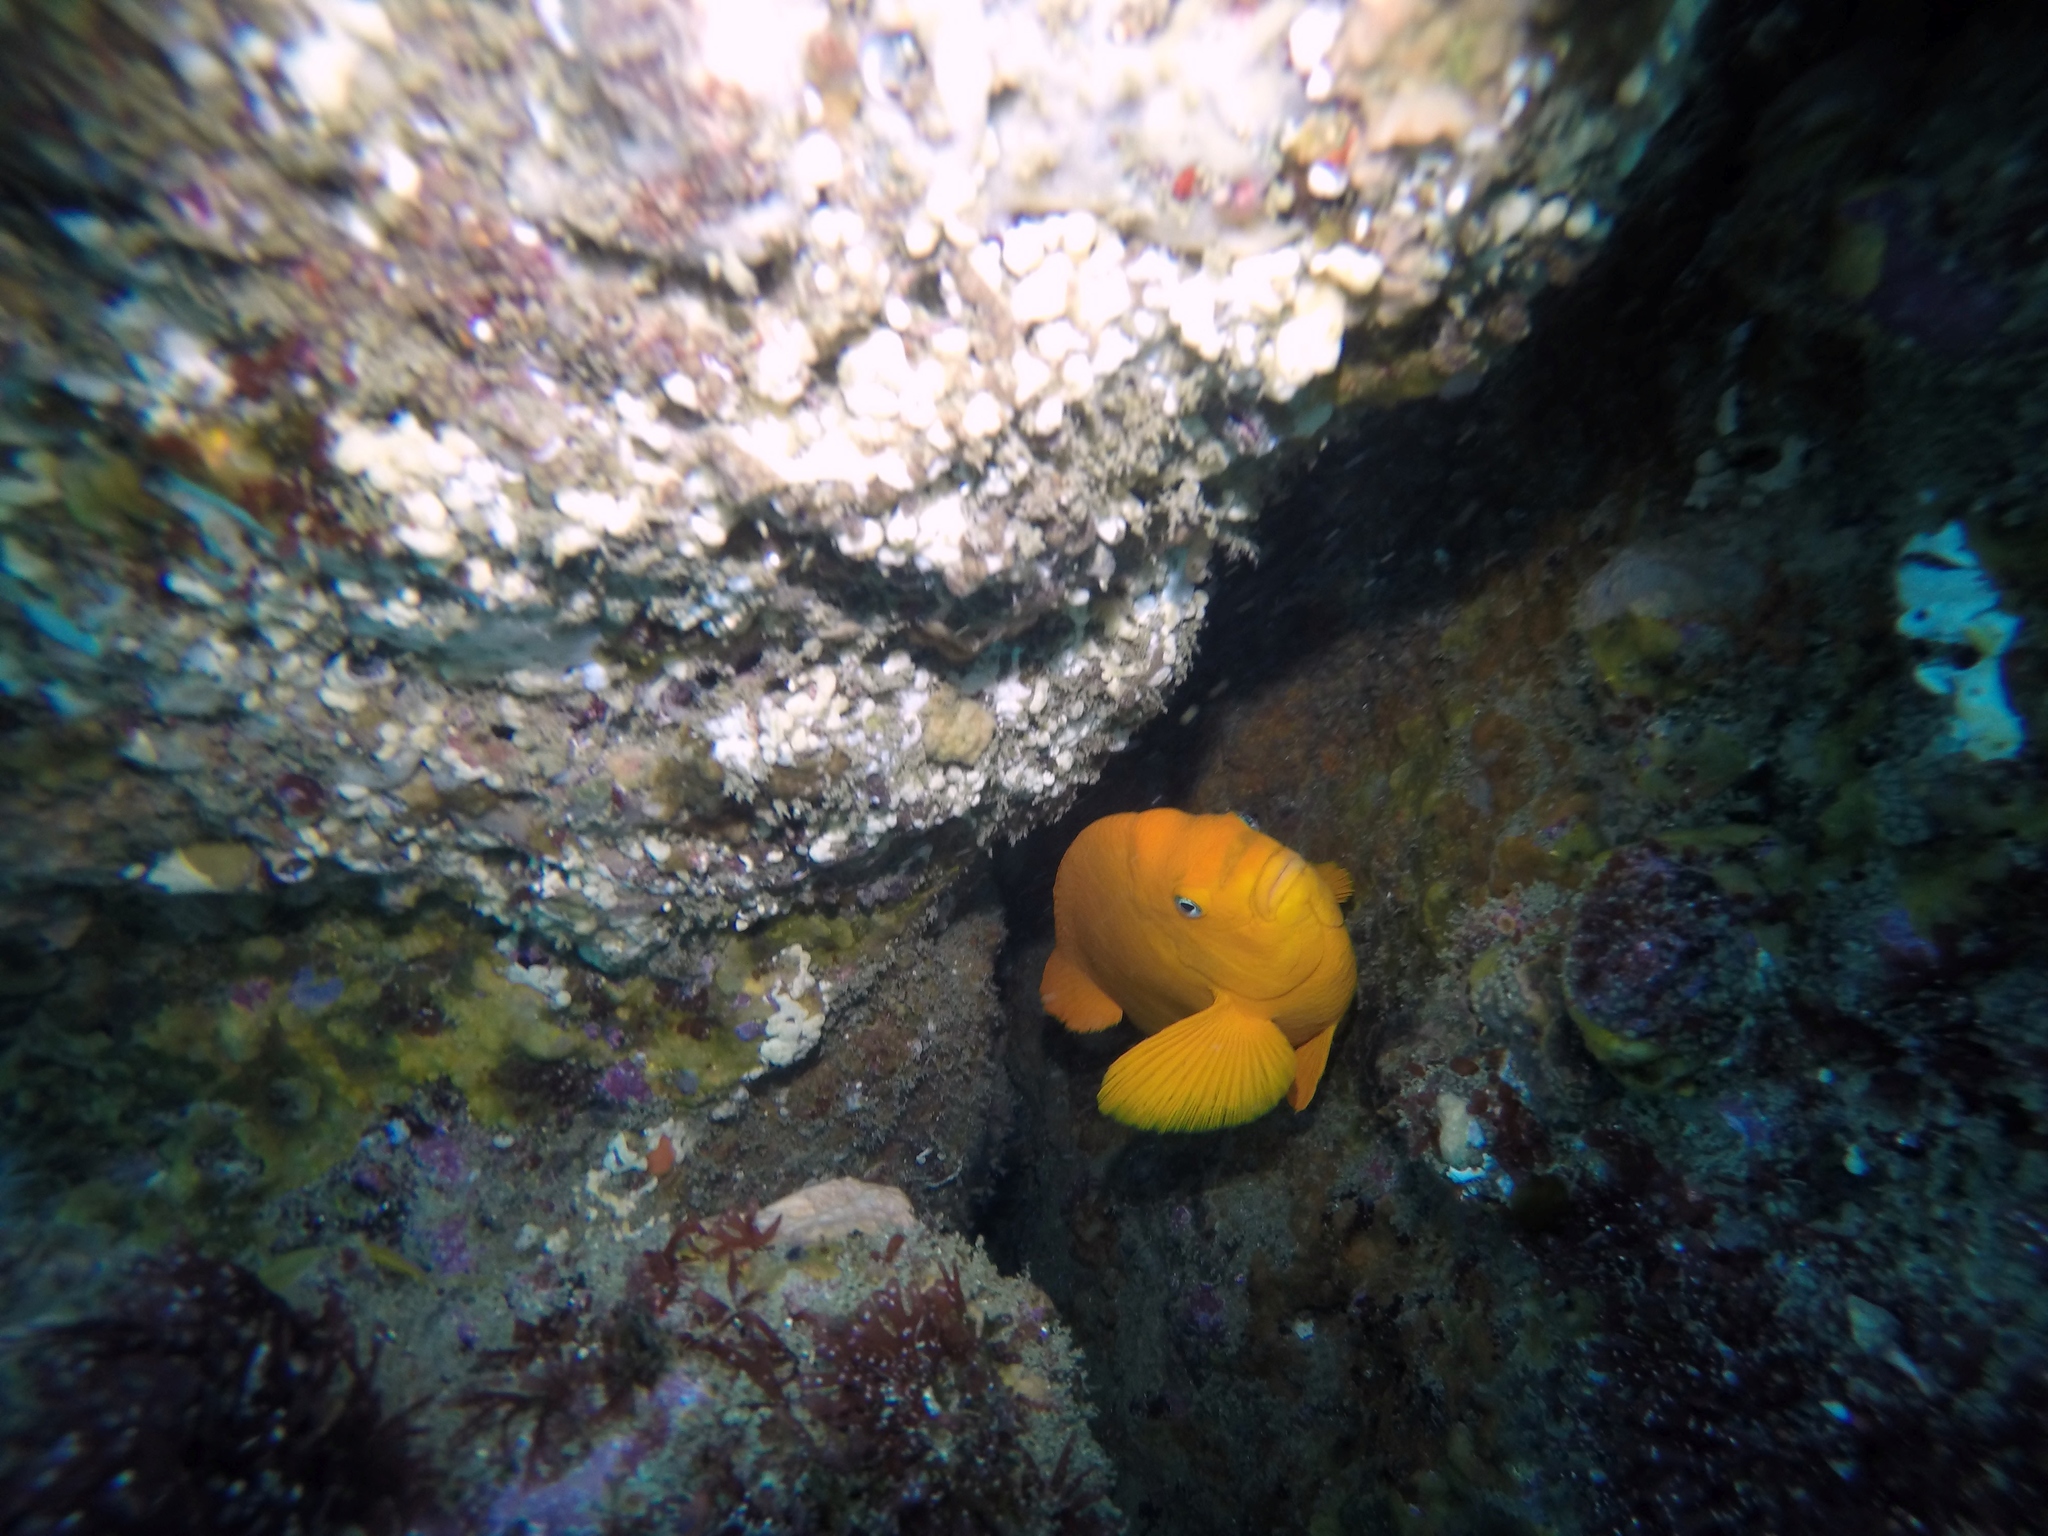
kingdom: Animalia
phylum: Chordata
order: Perciformes
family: Pomacentridae
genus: Hypsypops
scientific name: Hypsypops rubicundus
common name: Garibaldi
